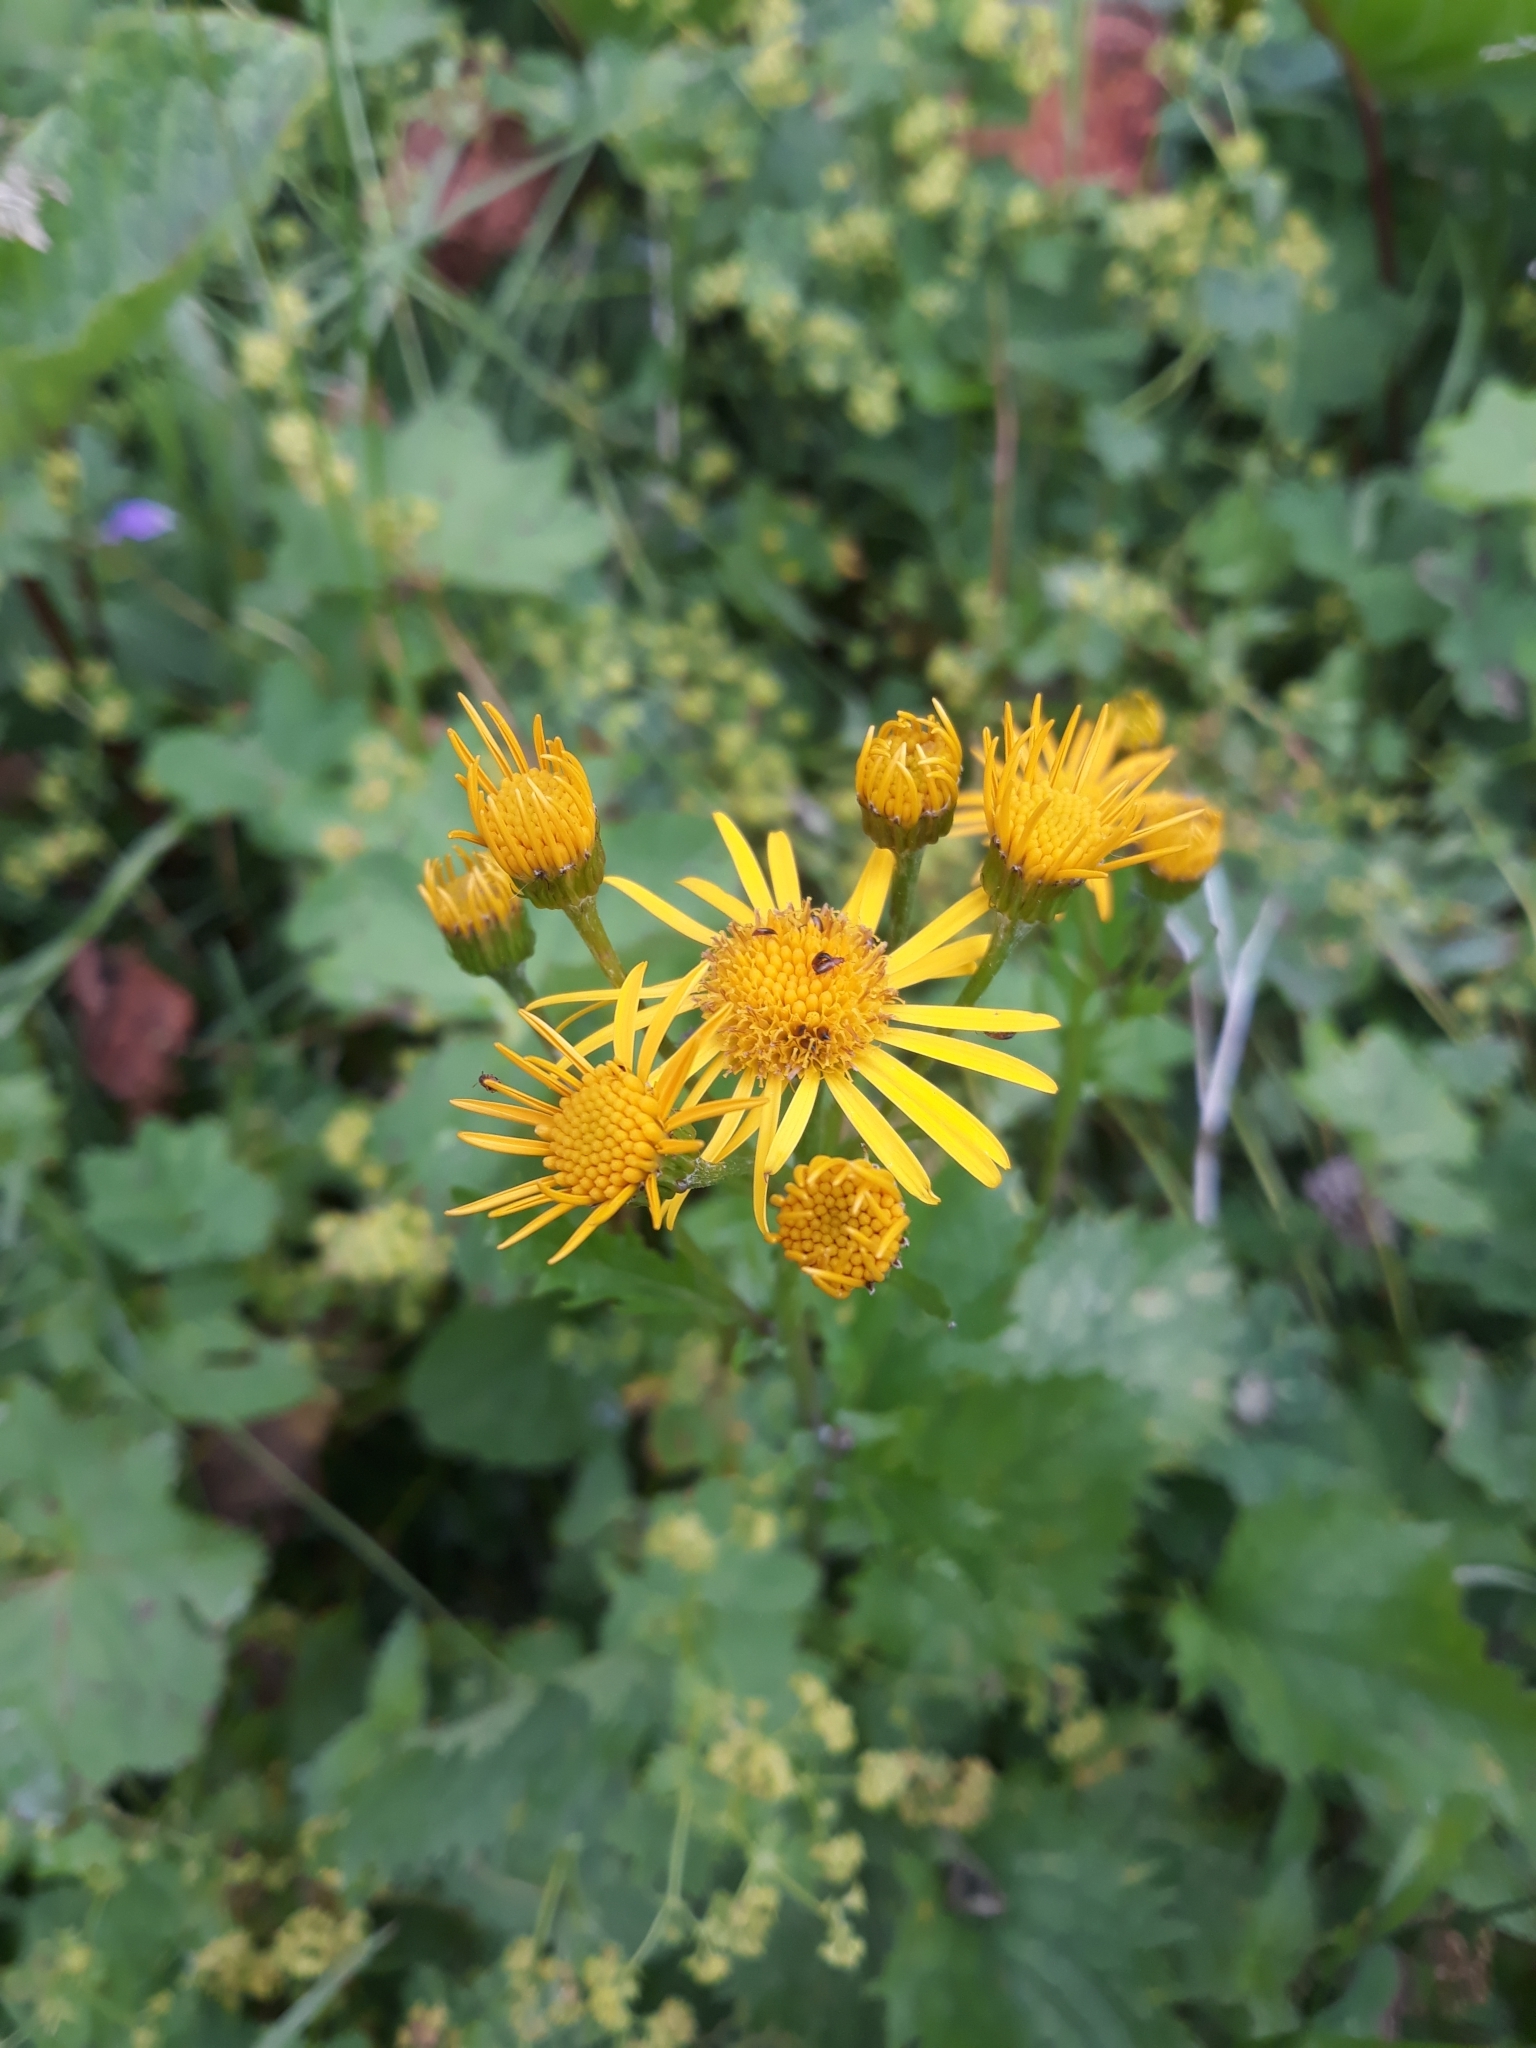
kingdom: Plantae
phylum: Tracheophyta
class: Magnoliopsida
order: Asterales
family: Asteraceae
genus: Jacobaea
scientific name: Jacobaea subalpina
